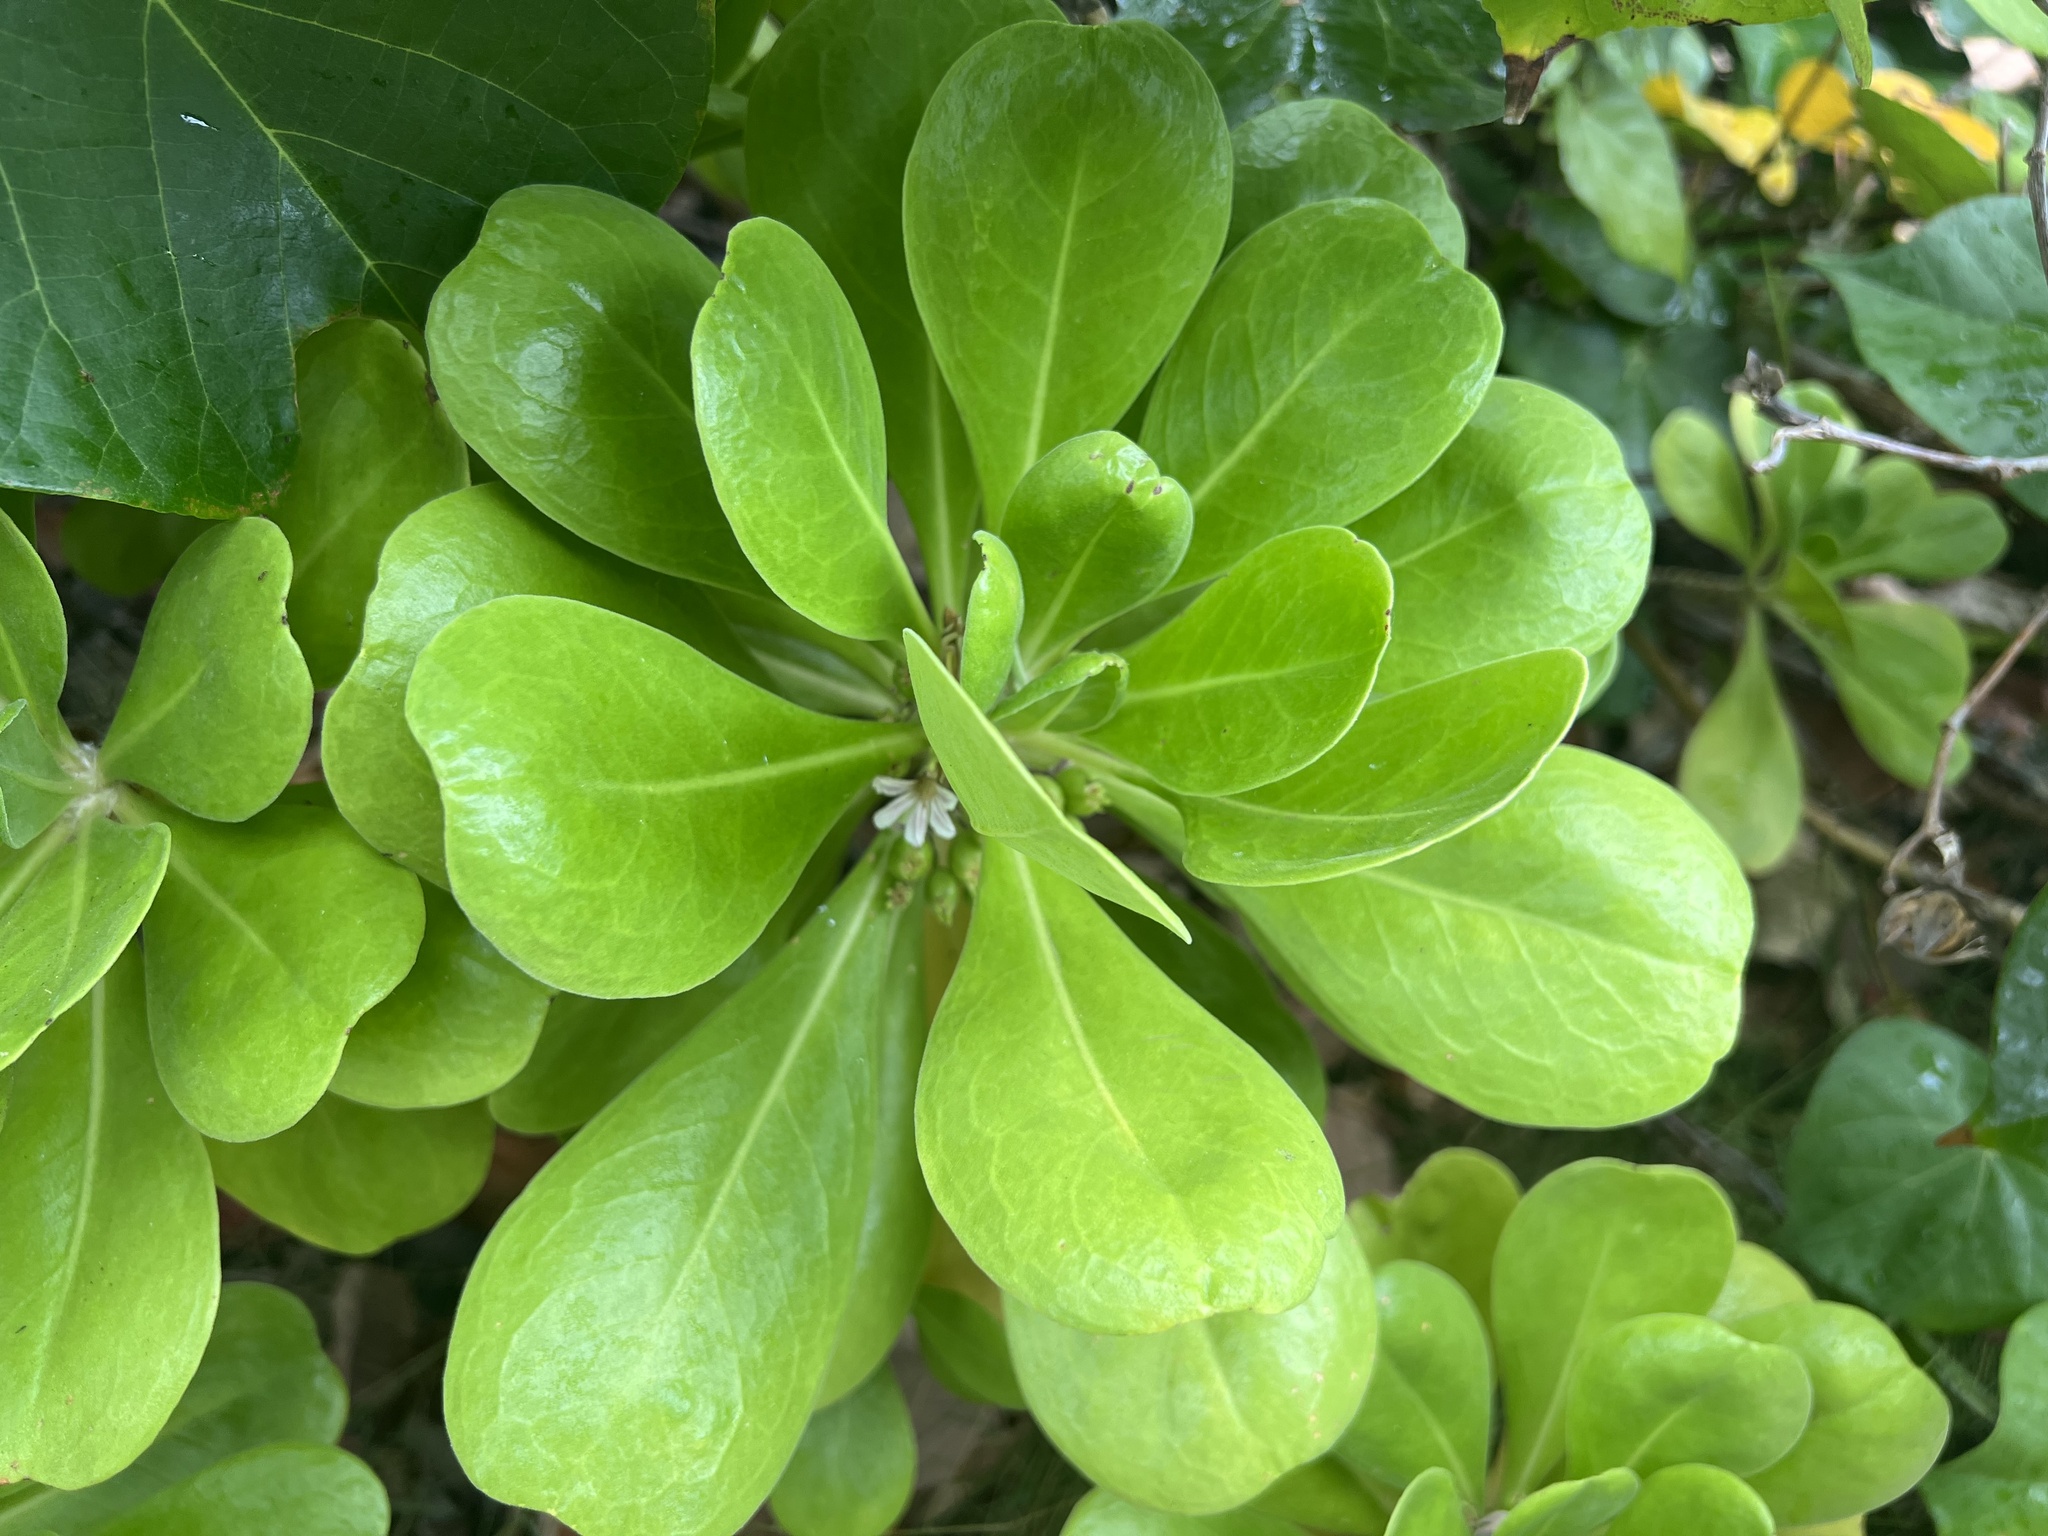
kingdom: Plantae
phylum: Tracheophyta
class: Magnoliopsida
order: Asterales
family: Goodeniaceae
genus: Scaevola
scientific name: Scaevola taccada
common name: Sea lettucetree
